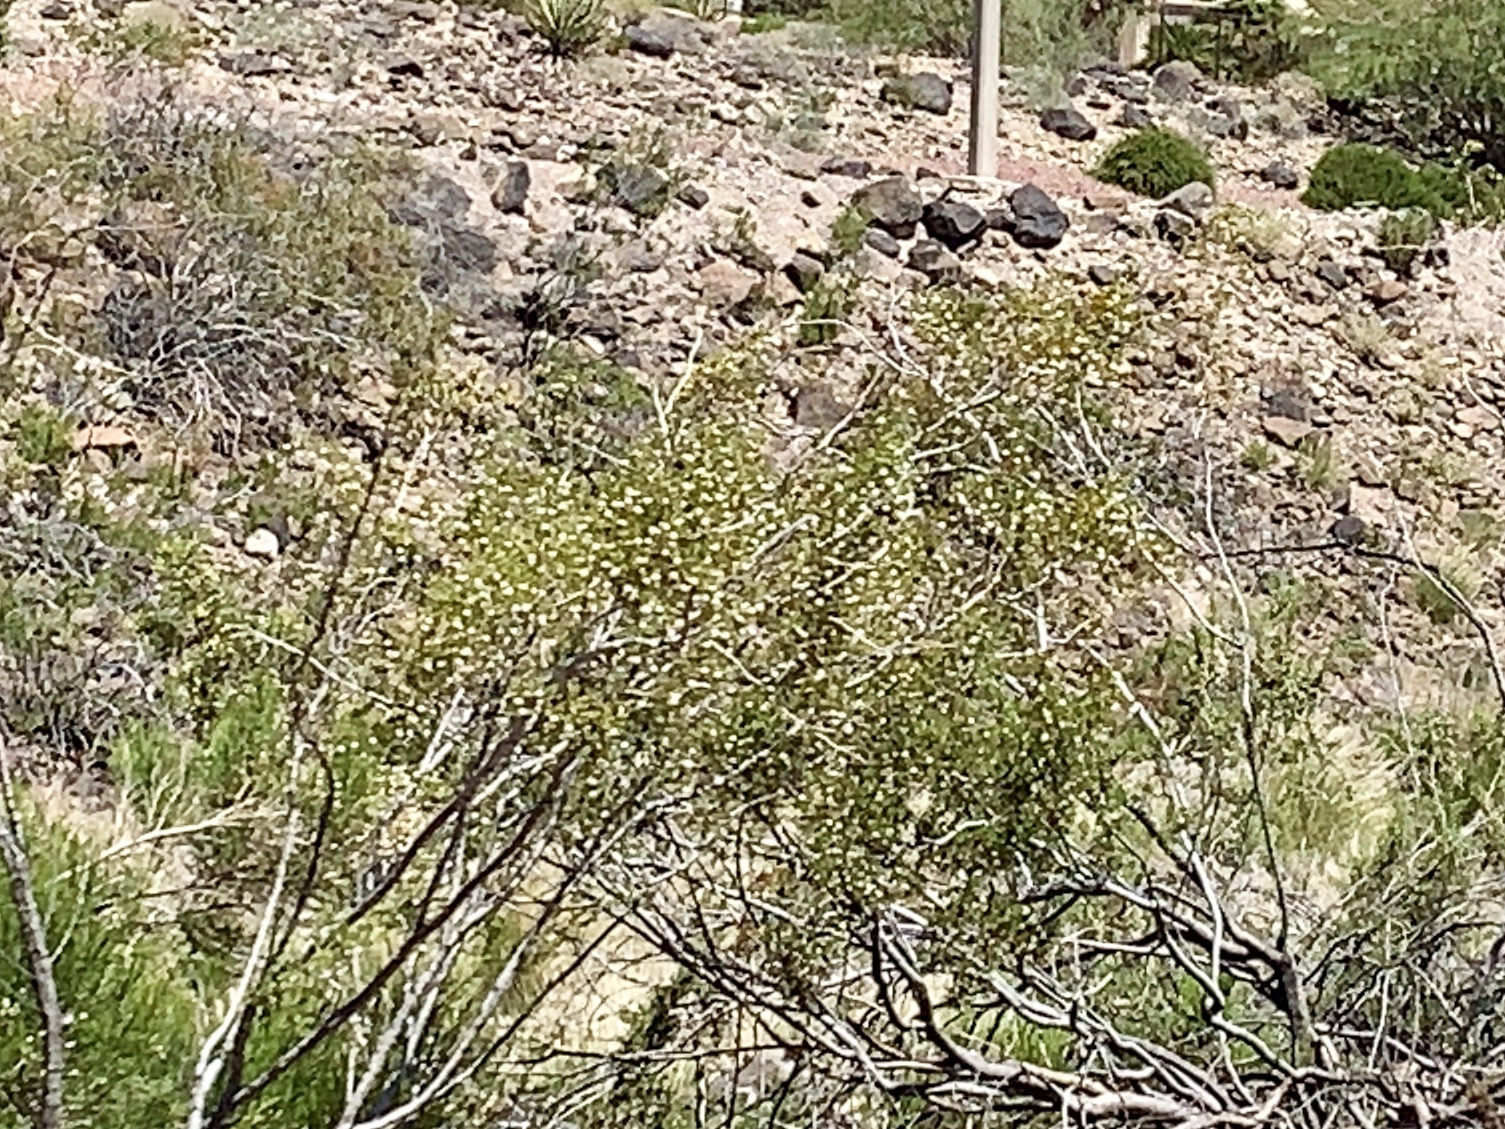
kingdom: Plantae
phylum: Tracheophyta
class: Magnoliopsida
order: Zygophyllales
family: Zygophyllaceae
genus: Larrea
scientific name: Larrea tridentata
